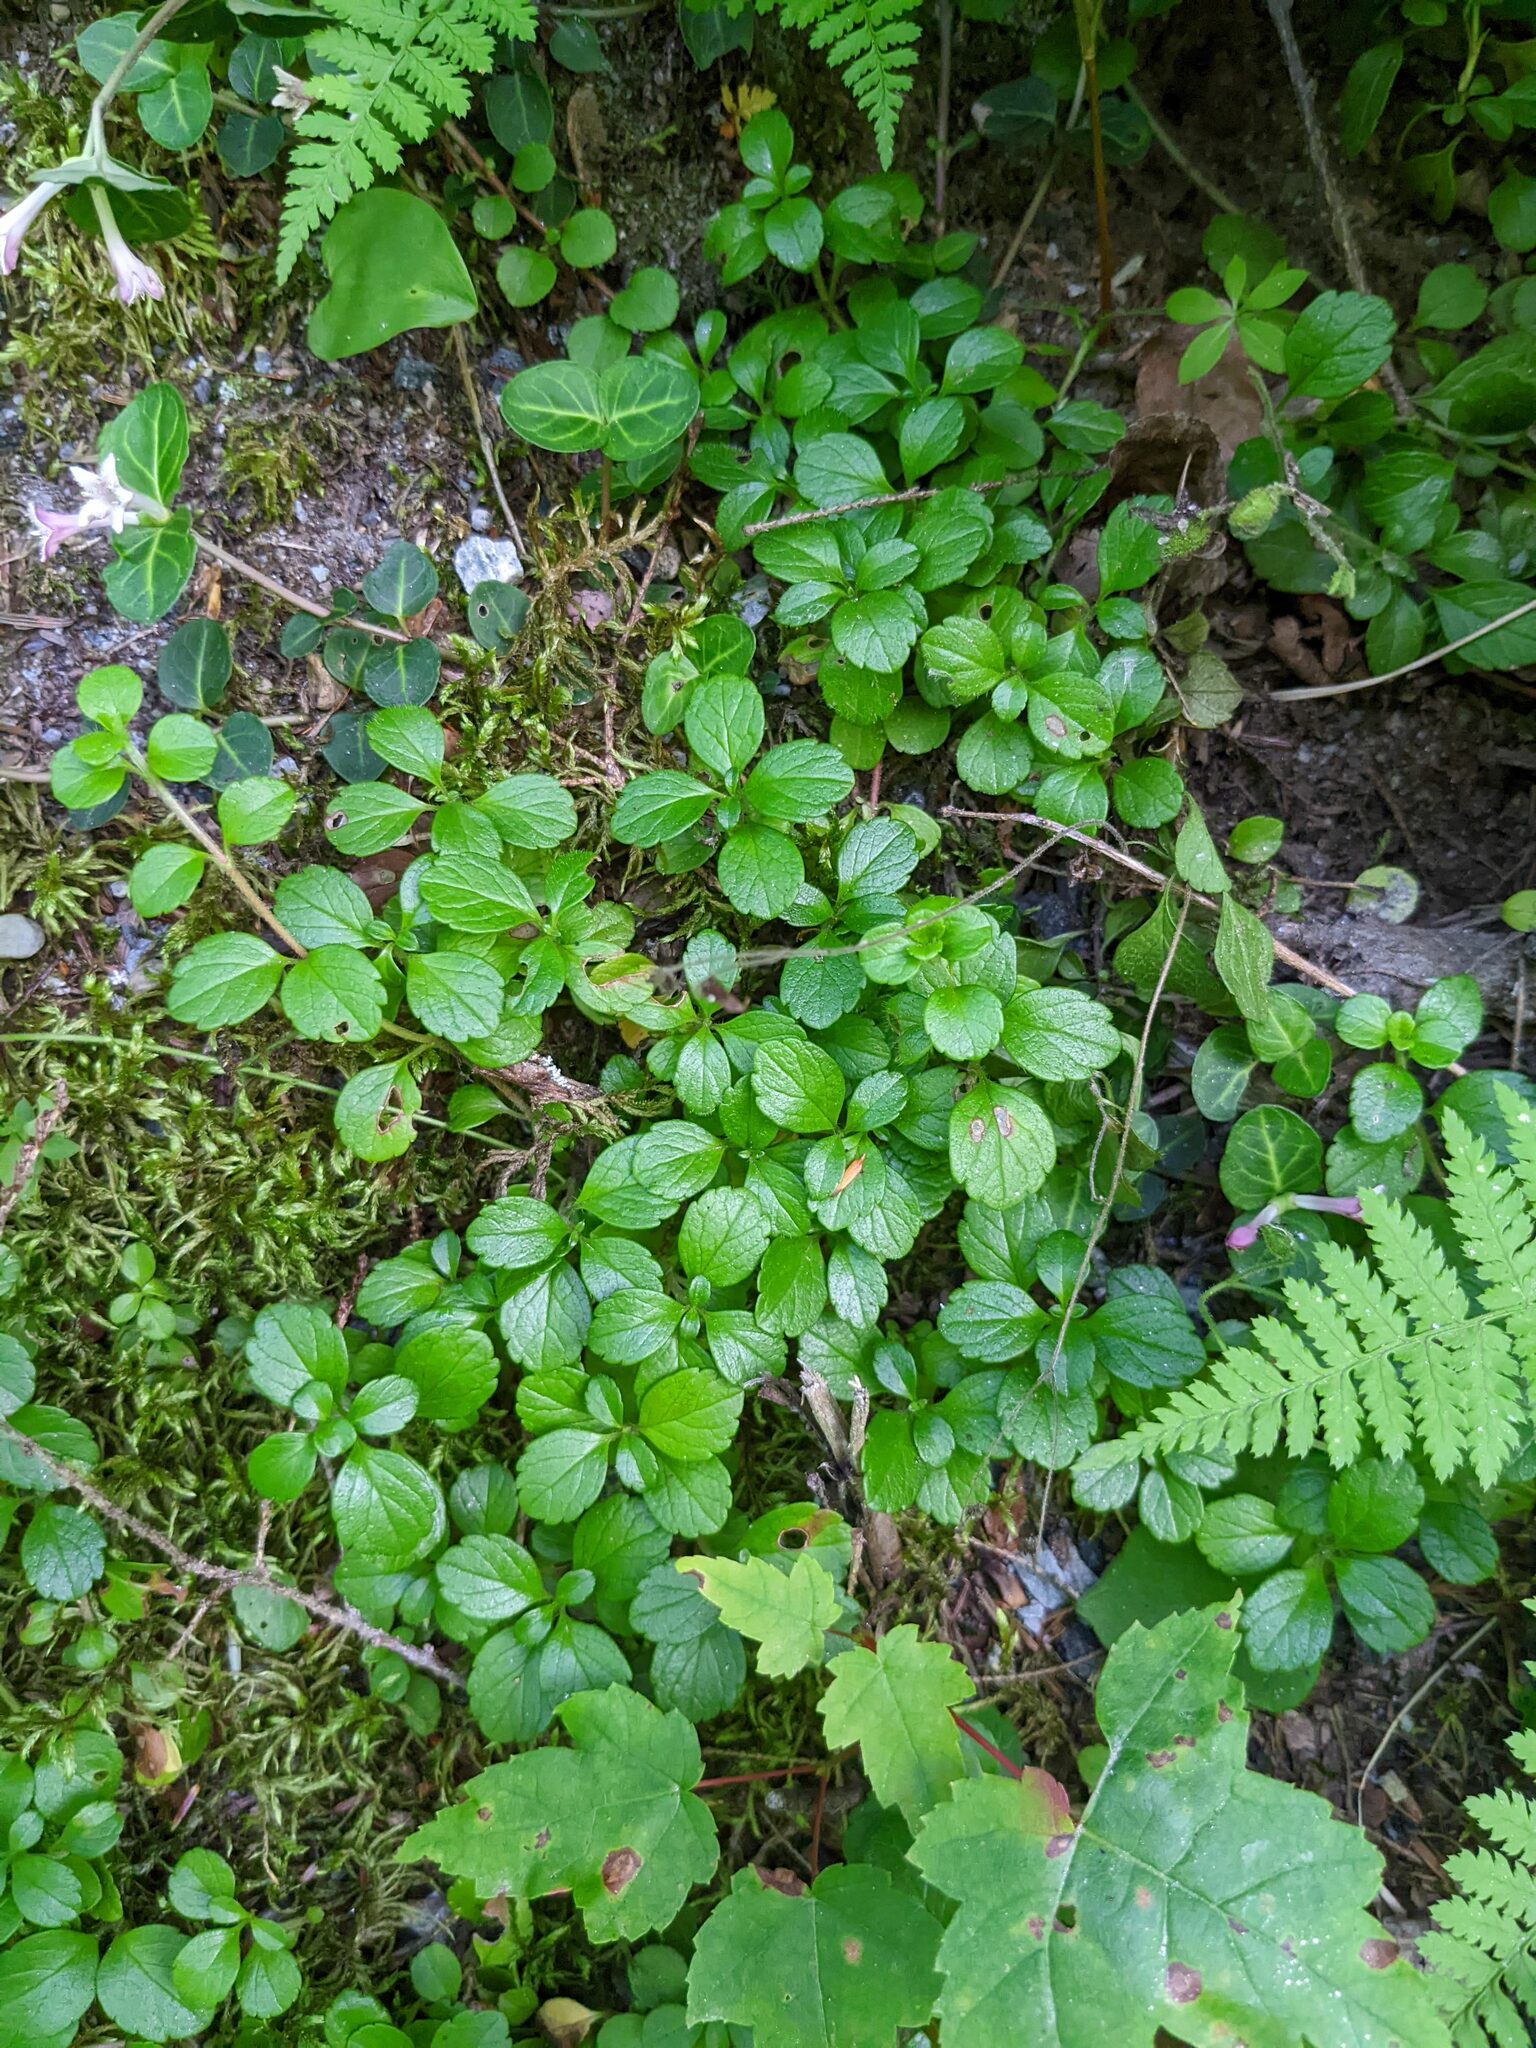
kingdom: Plantae
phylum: Tracheophyta
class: Magnoliopsida
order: Dipsacales
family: Caprifoliaceae
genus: Linnaea
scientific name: Linnaea borealis
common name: Twinflower
